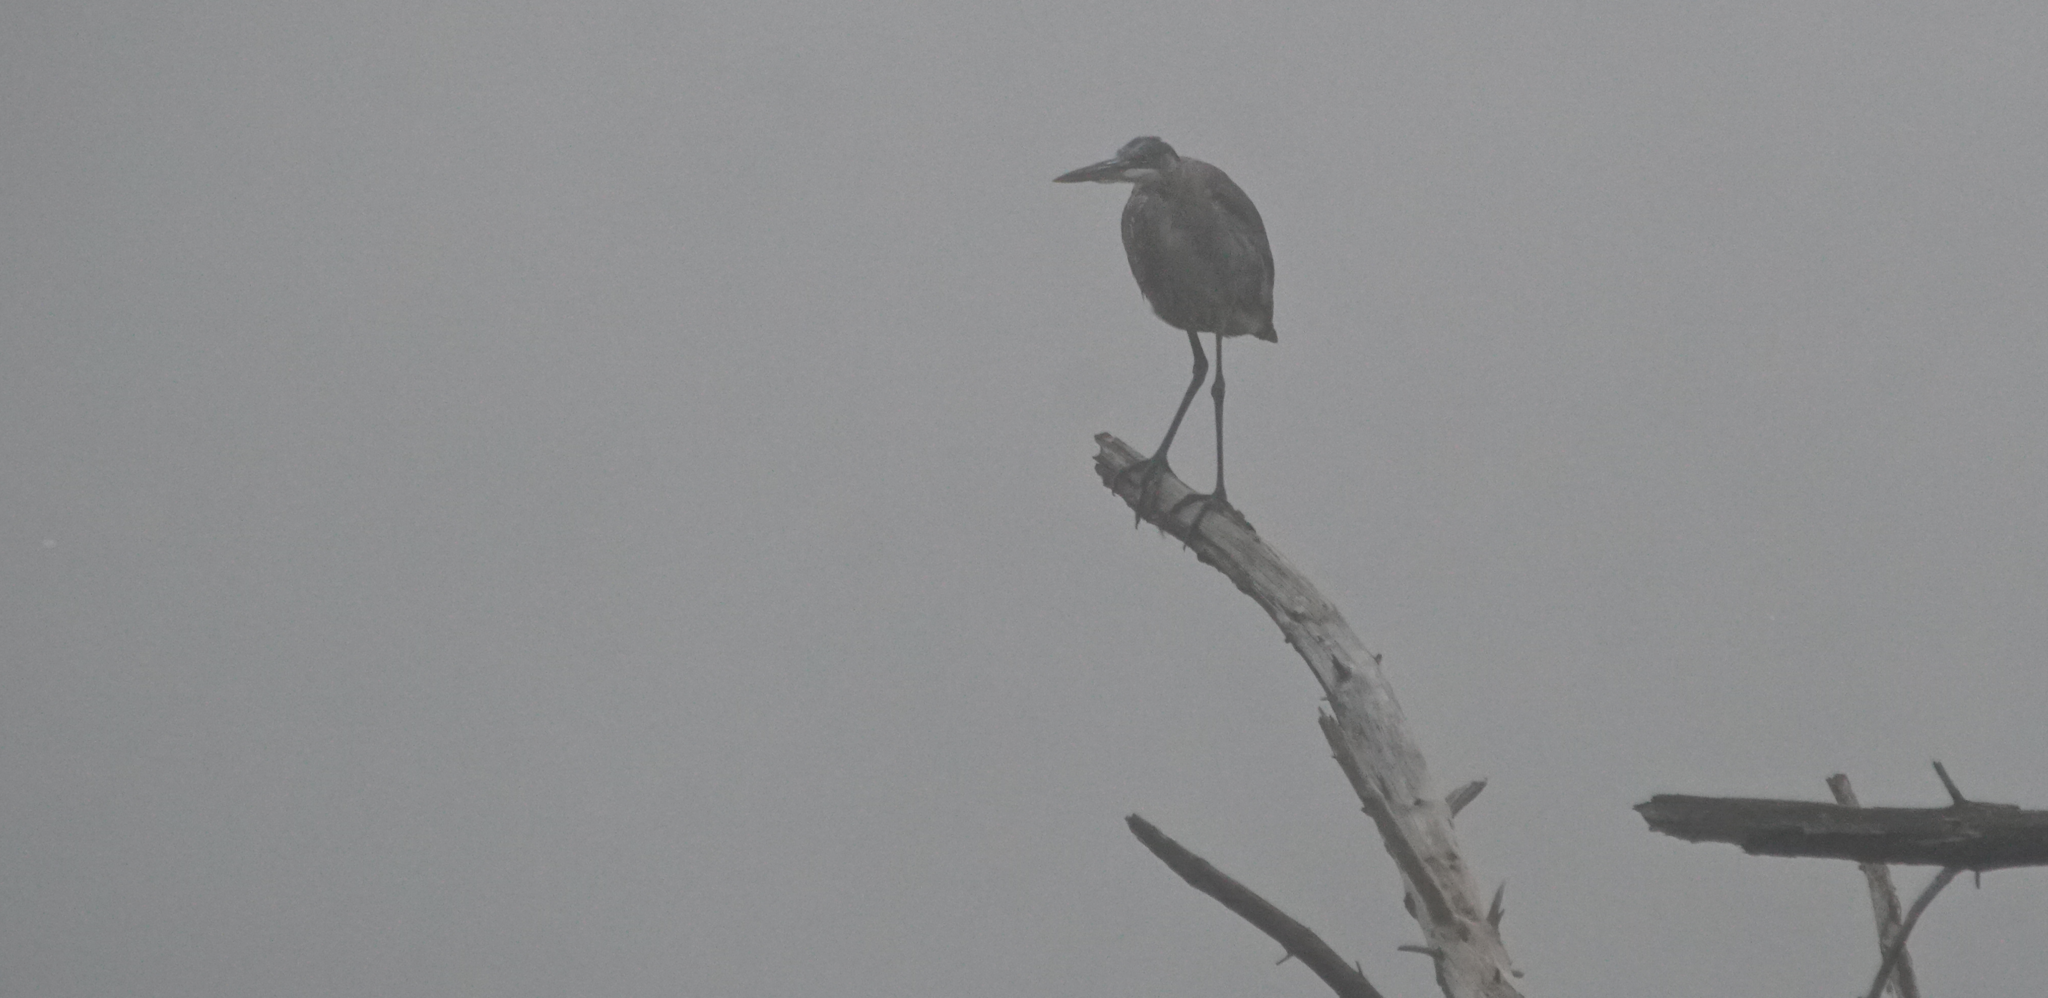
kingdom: Animalia
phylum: Chordata
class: Aves
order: Pelecaniformes
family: Ardeidae
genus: Ardea
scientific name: Ardea herodias
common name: Great blue heron
